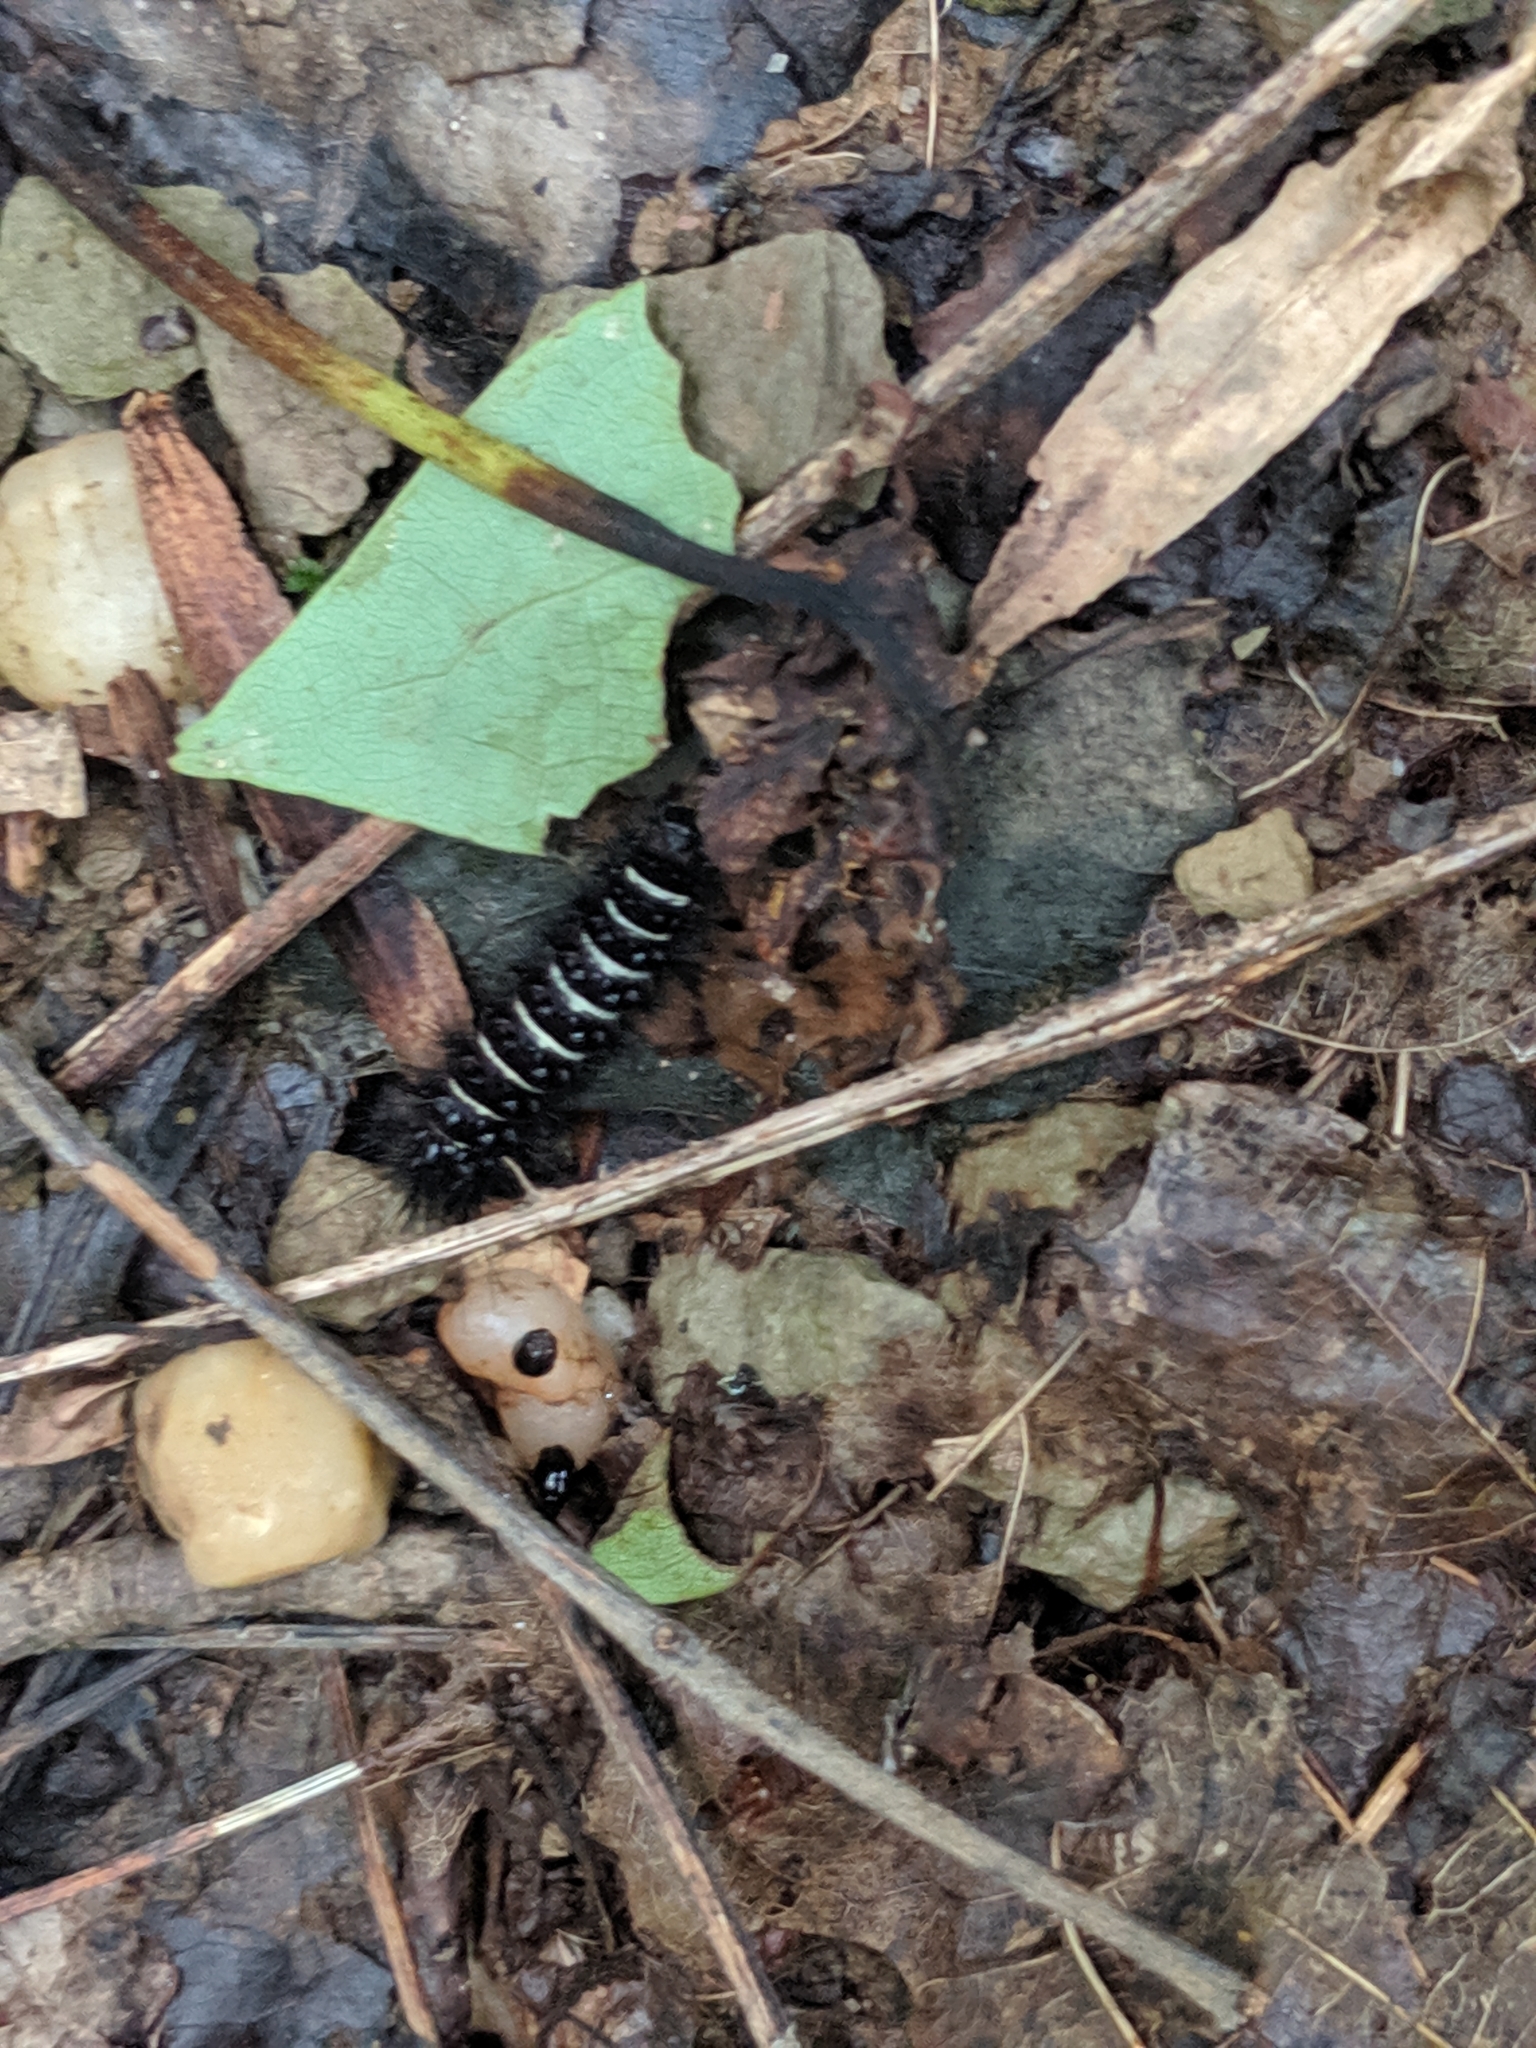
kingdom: Animalia
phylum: Arthropoda
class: Insecta
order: Lepidoptera
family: Erebidae
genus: Spilosoma
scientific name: Spilosoma congrua
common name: Agreeable tiger moth
